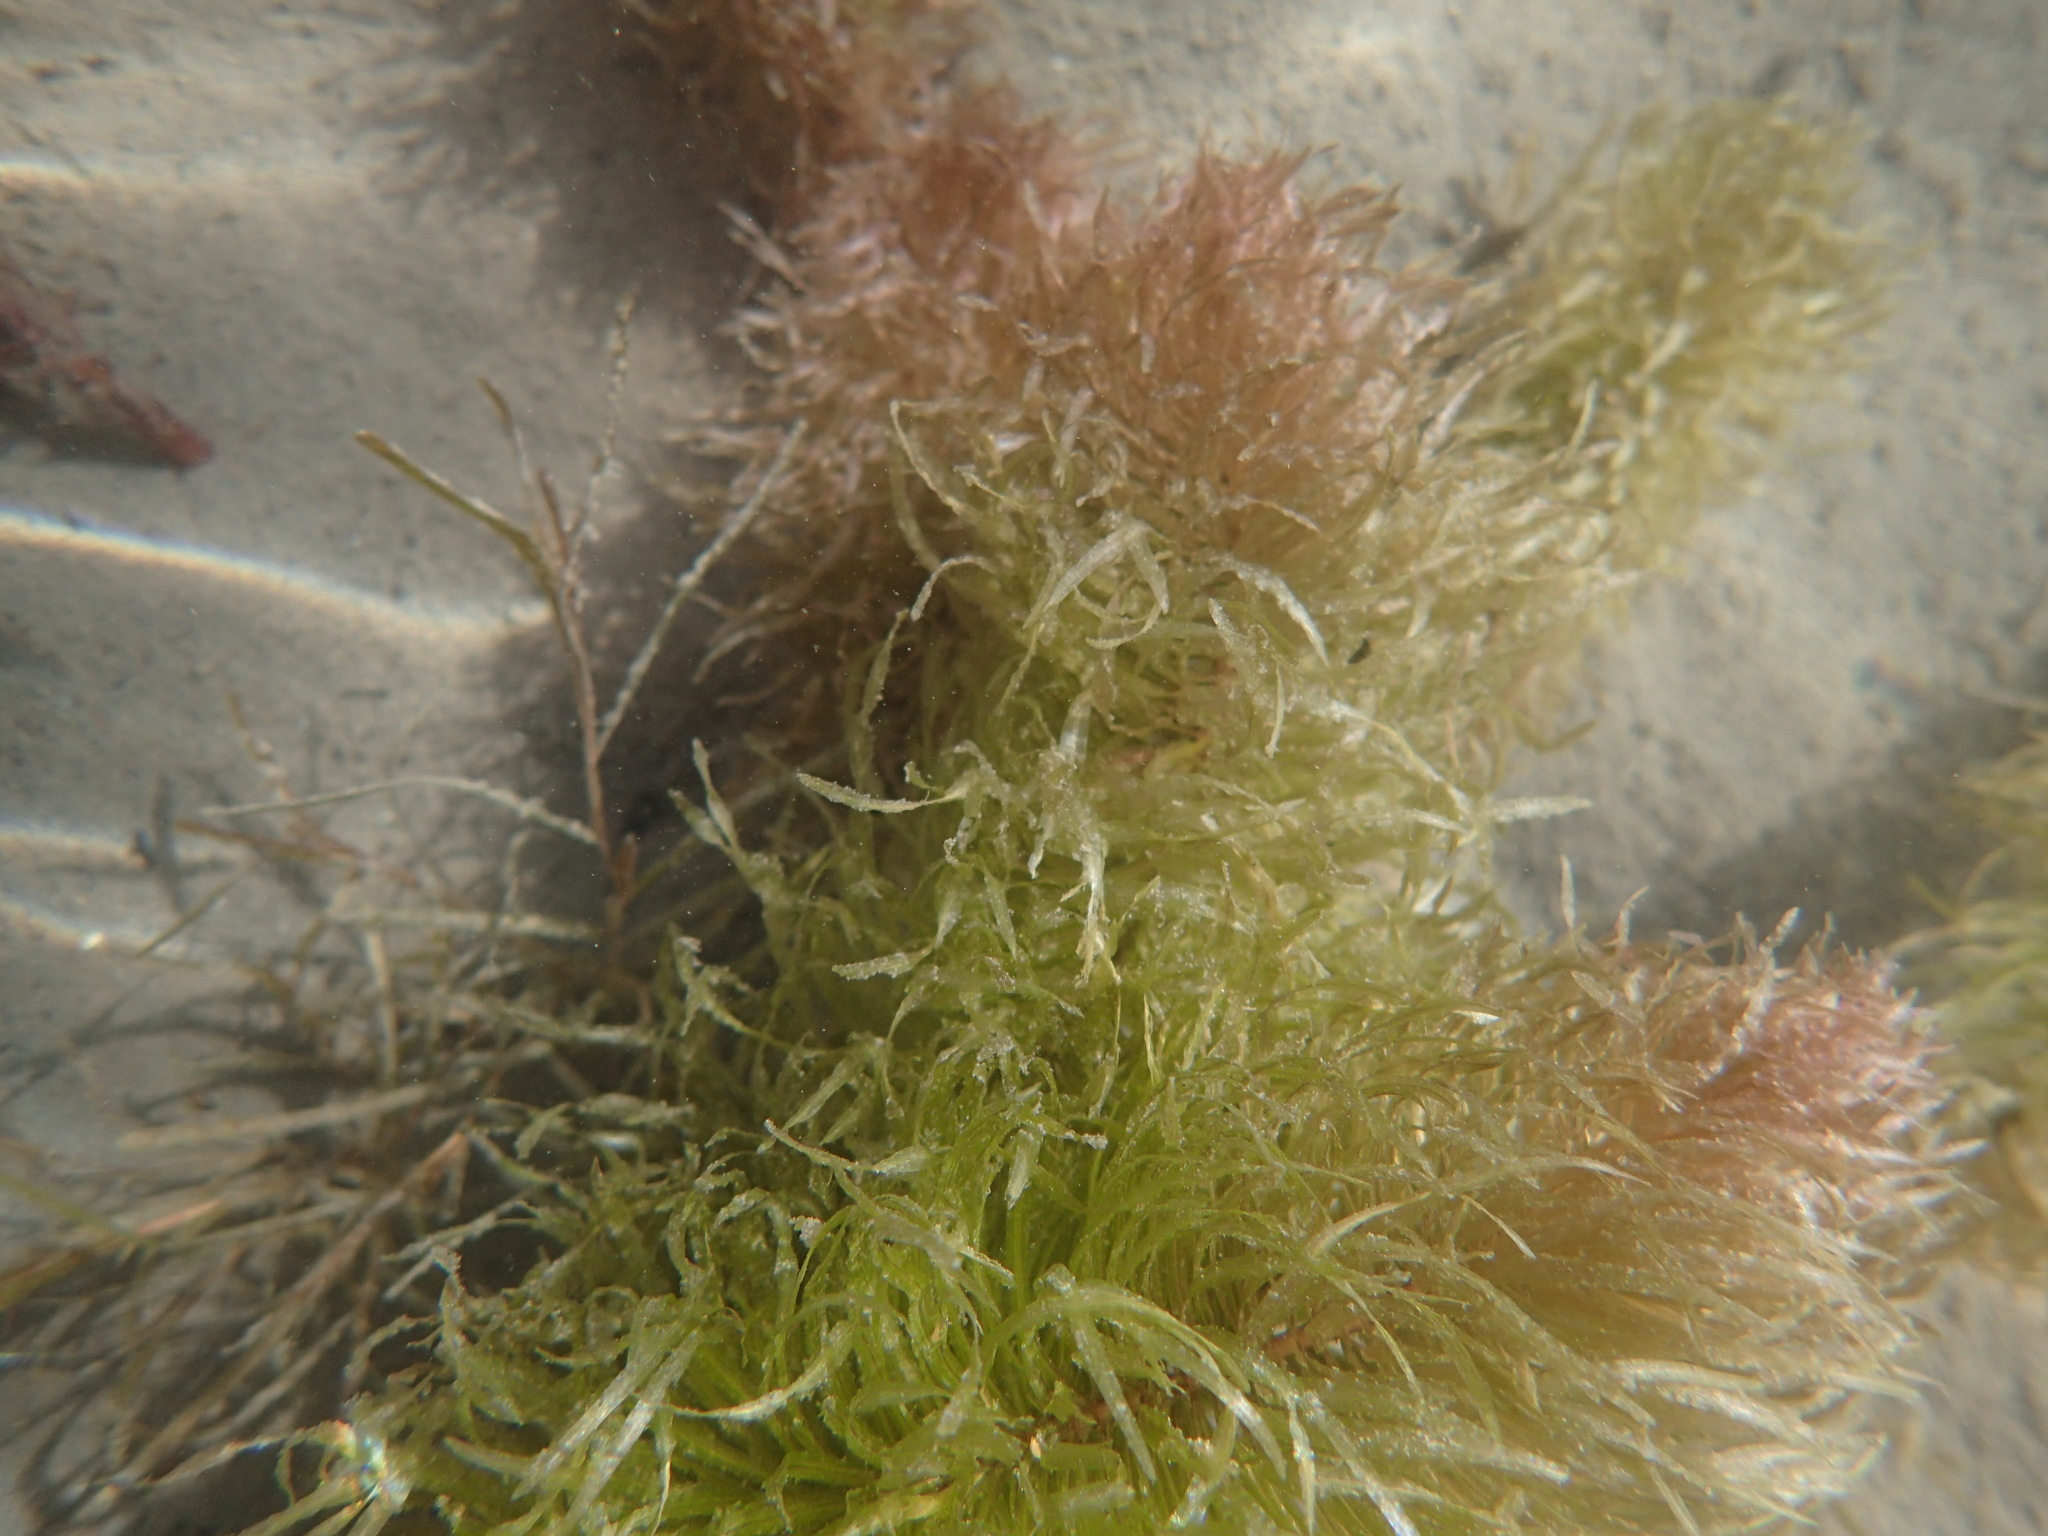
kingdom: Plantae
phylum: Tracheophyta
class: Magnoliopsida
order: Lamiales
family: Plantaginaceae
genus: Hippuris
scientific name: Hippuris vulgaris
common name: Mare's-tail
